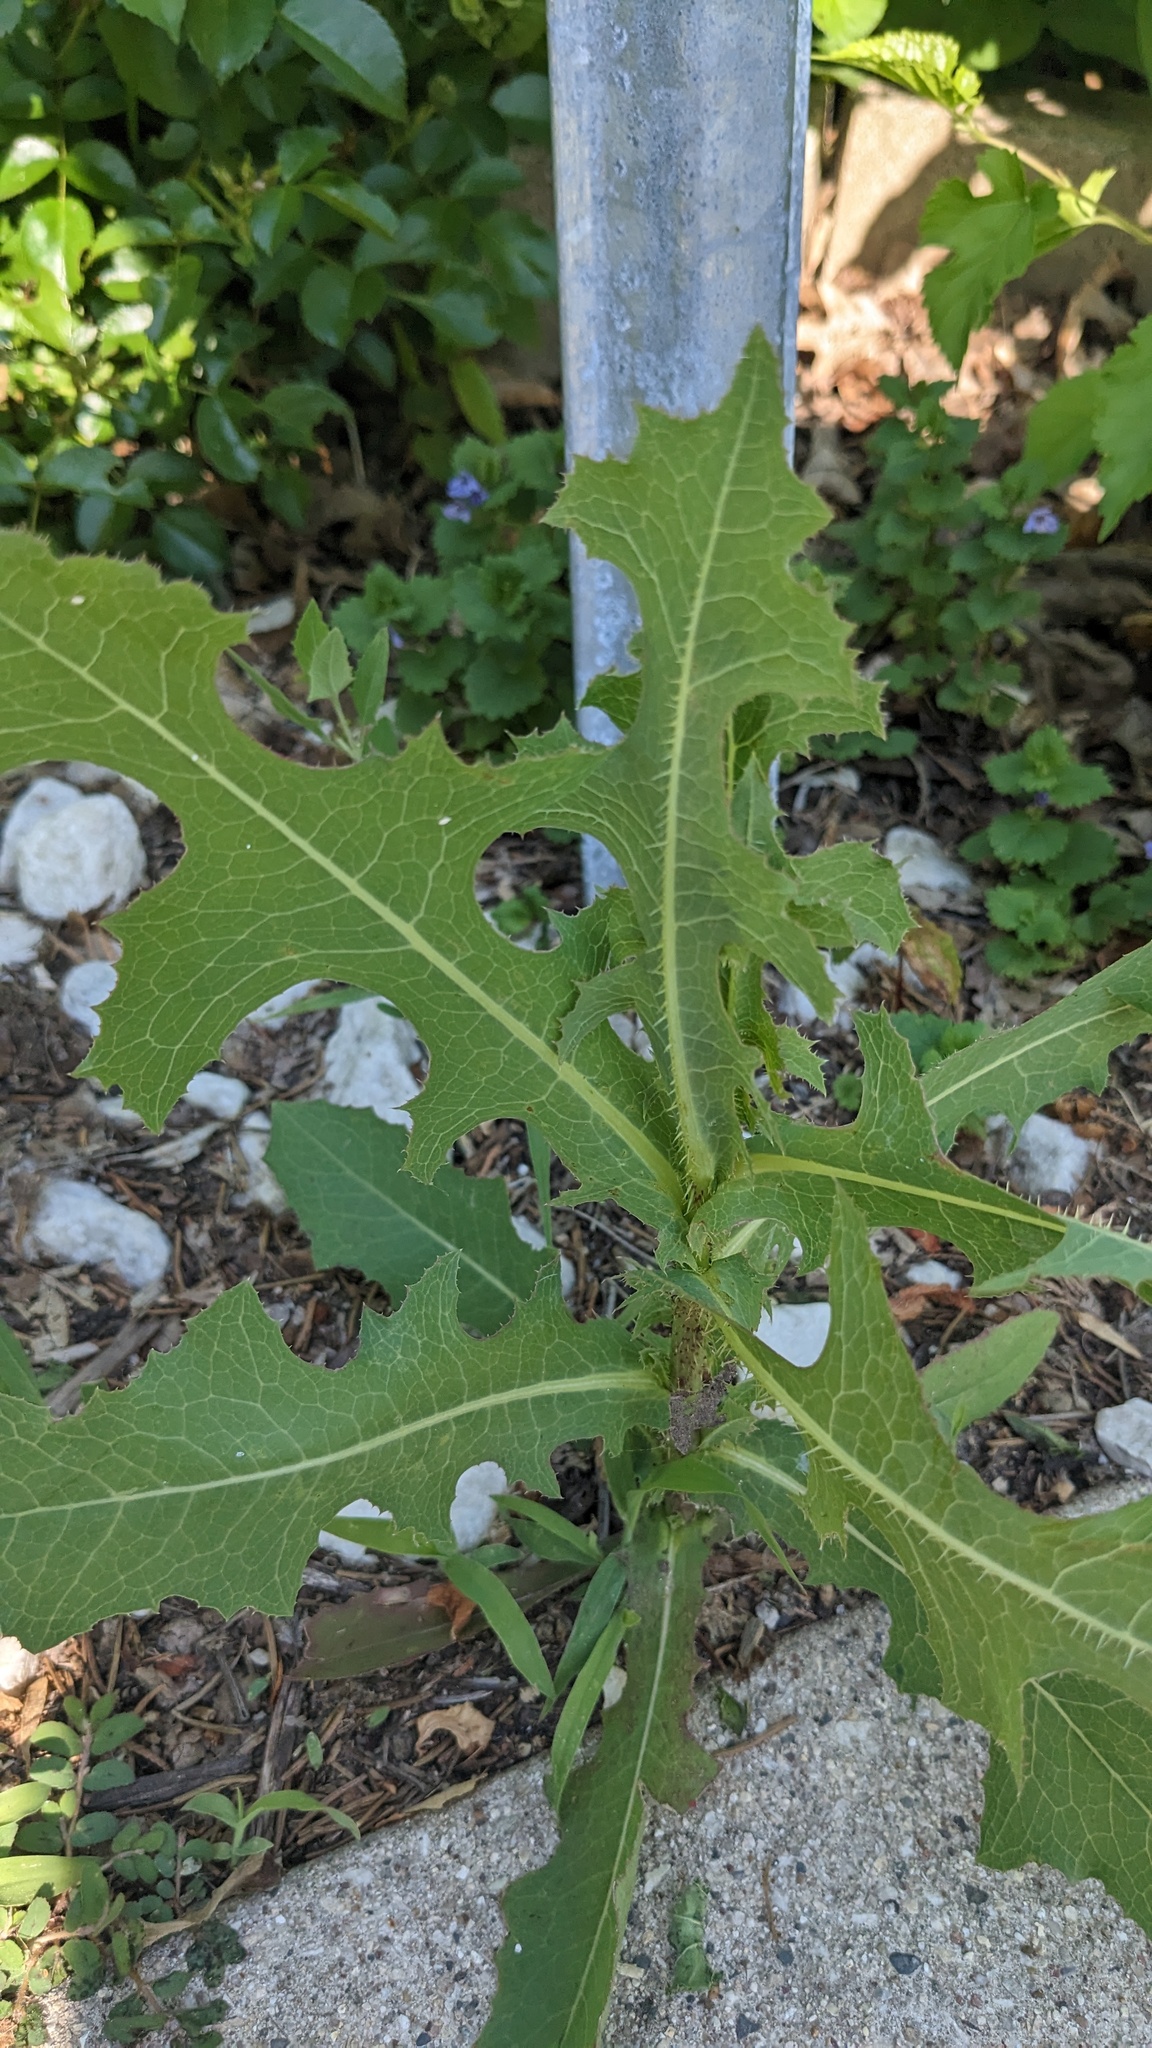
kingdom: Plantae
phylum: Tracheophyta
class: Magnoliopsida
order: Asterales
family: Asteraceae
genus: Lactuca
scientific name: Lactuca serriola
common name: Prickly lettuce
